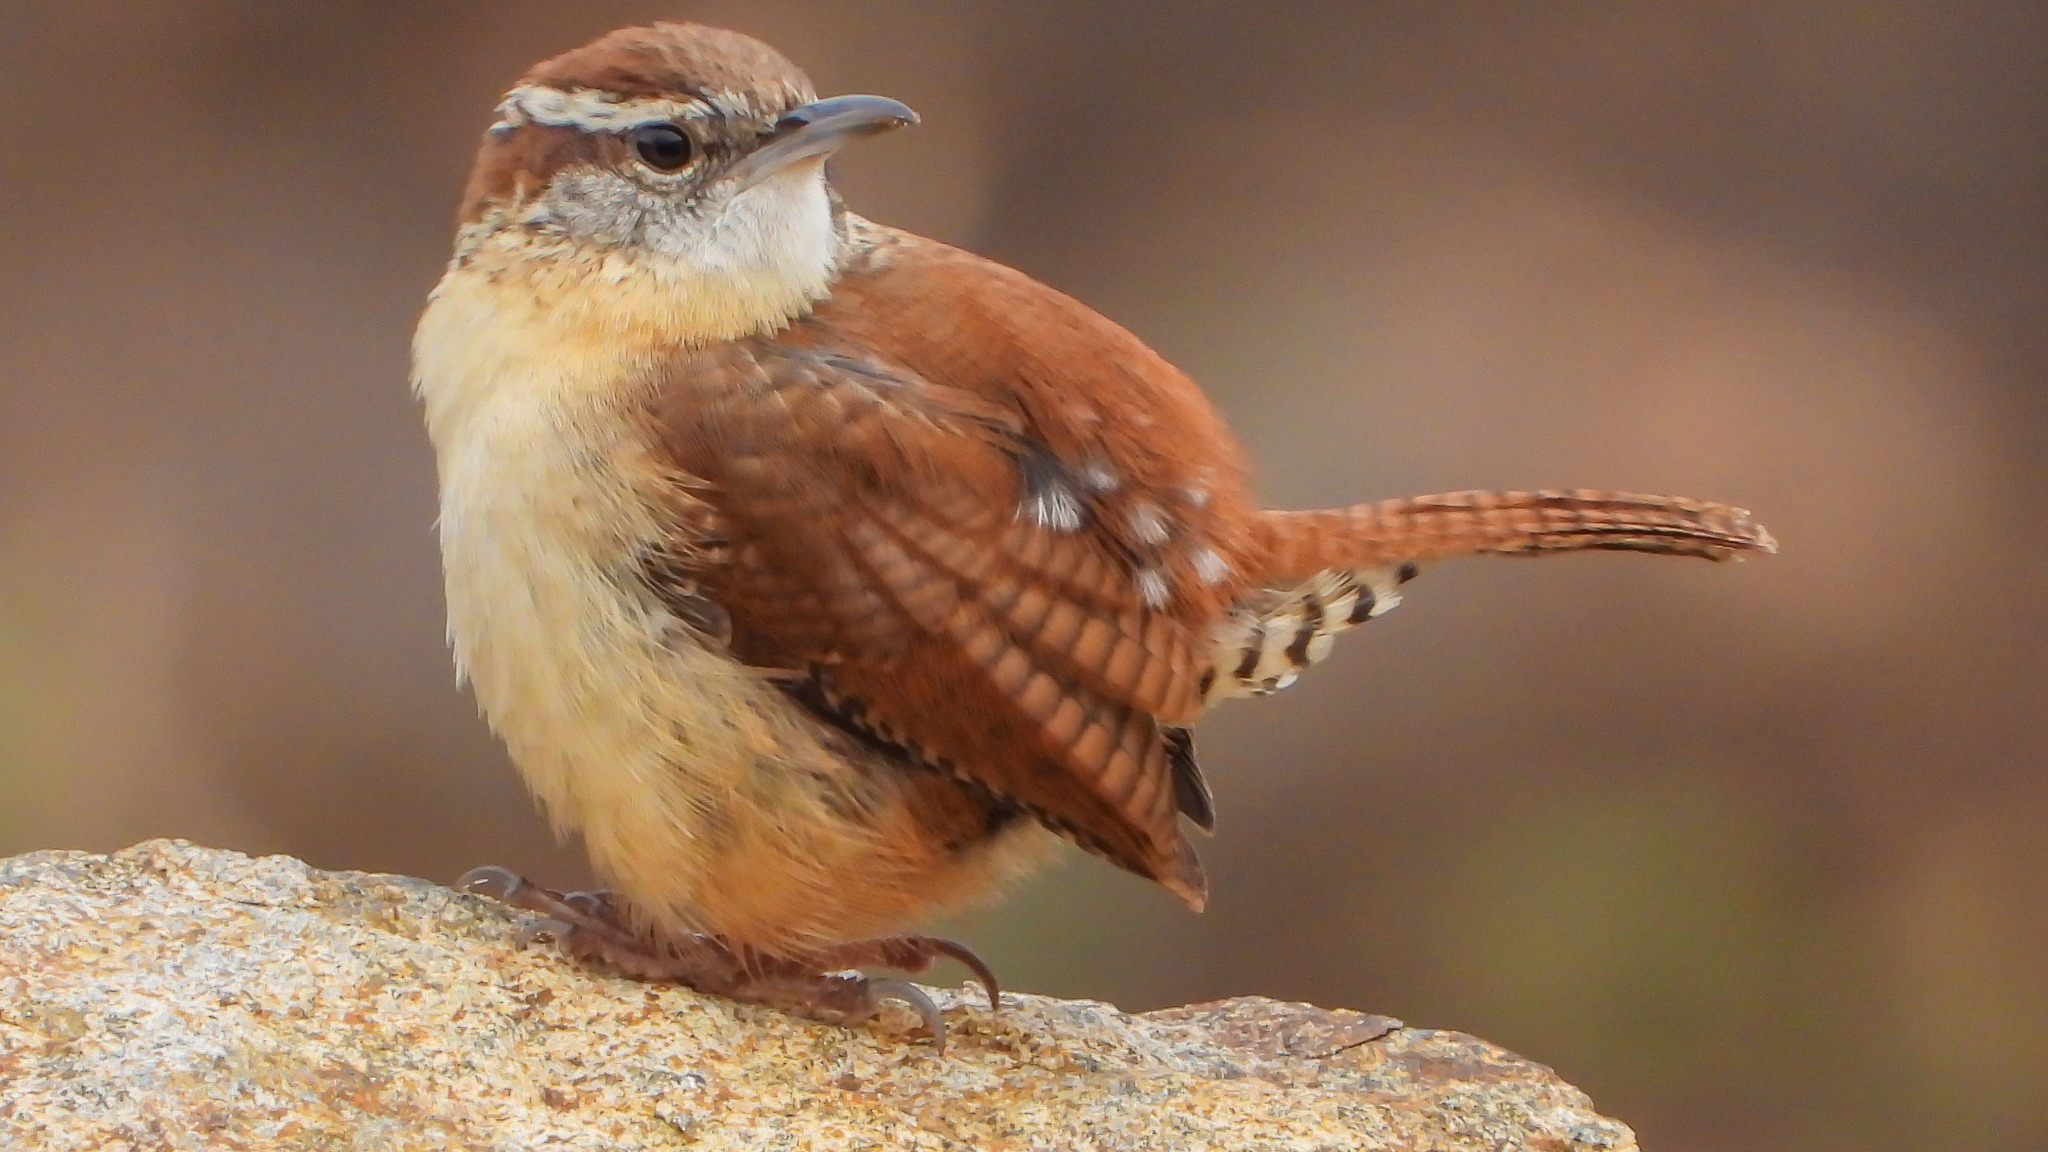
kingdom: Animalia
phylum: Chordata
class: Aves
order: Passeriformes
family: Troglodytidae
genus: Thryothorus
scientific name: Thryothorus ludovicianus
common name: Carolina wren
